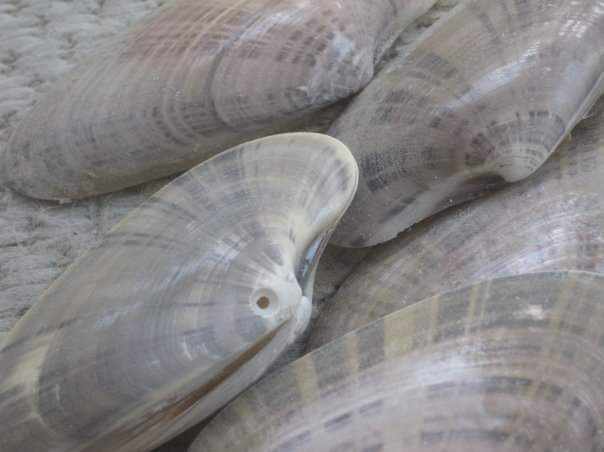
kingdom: Animalia
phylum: Mollusca
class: Bivalvia
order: Venerida
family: Veneridae
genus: Macrocallista
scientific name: Macrocallista nimbosa
